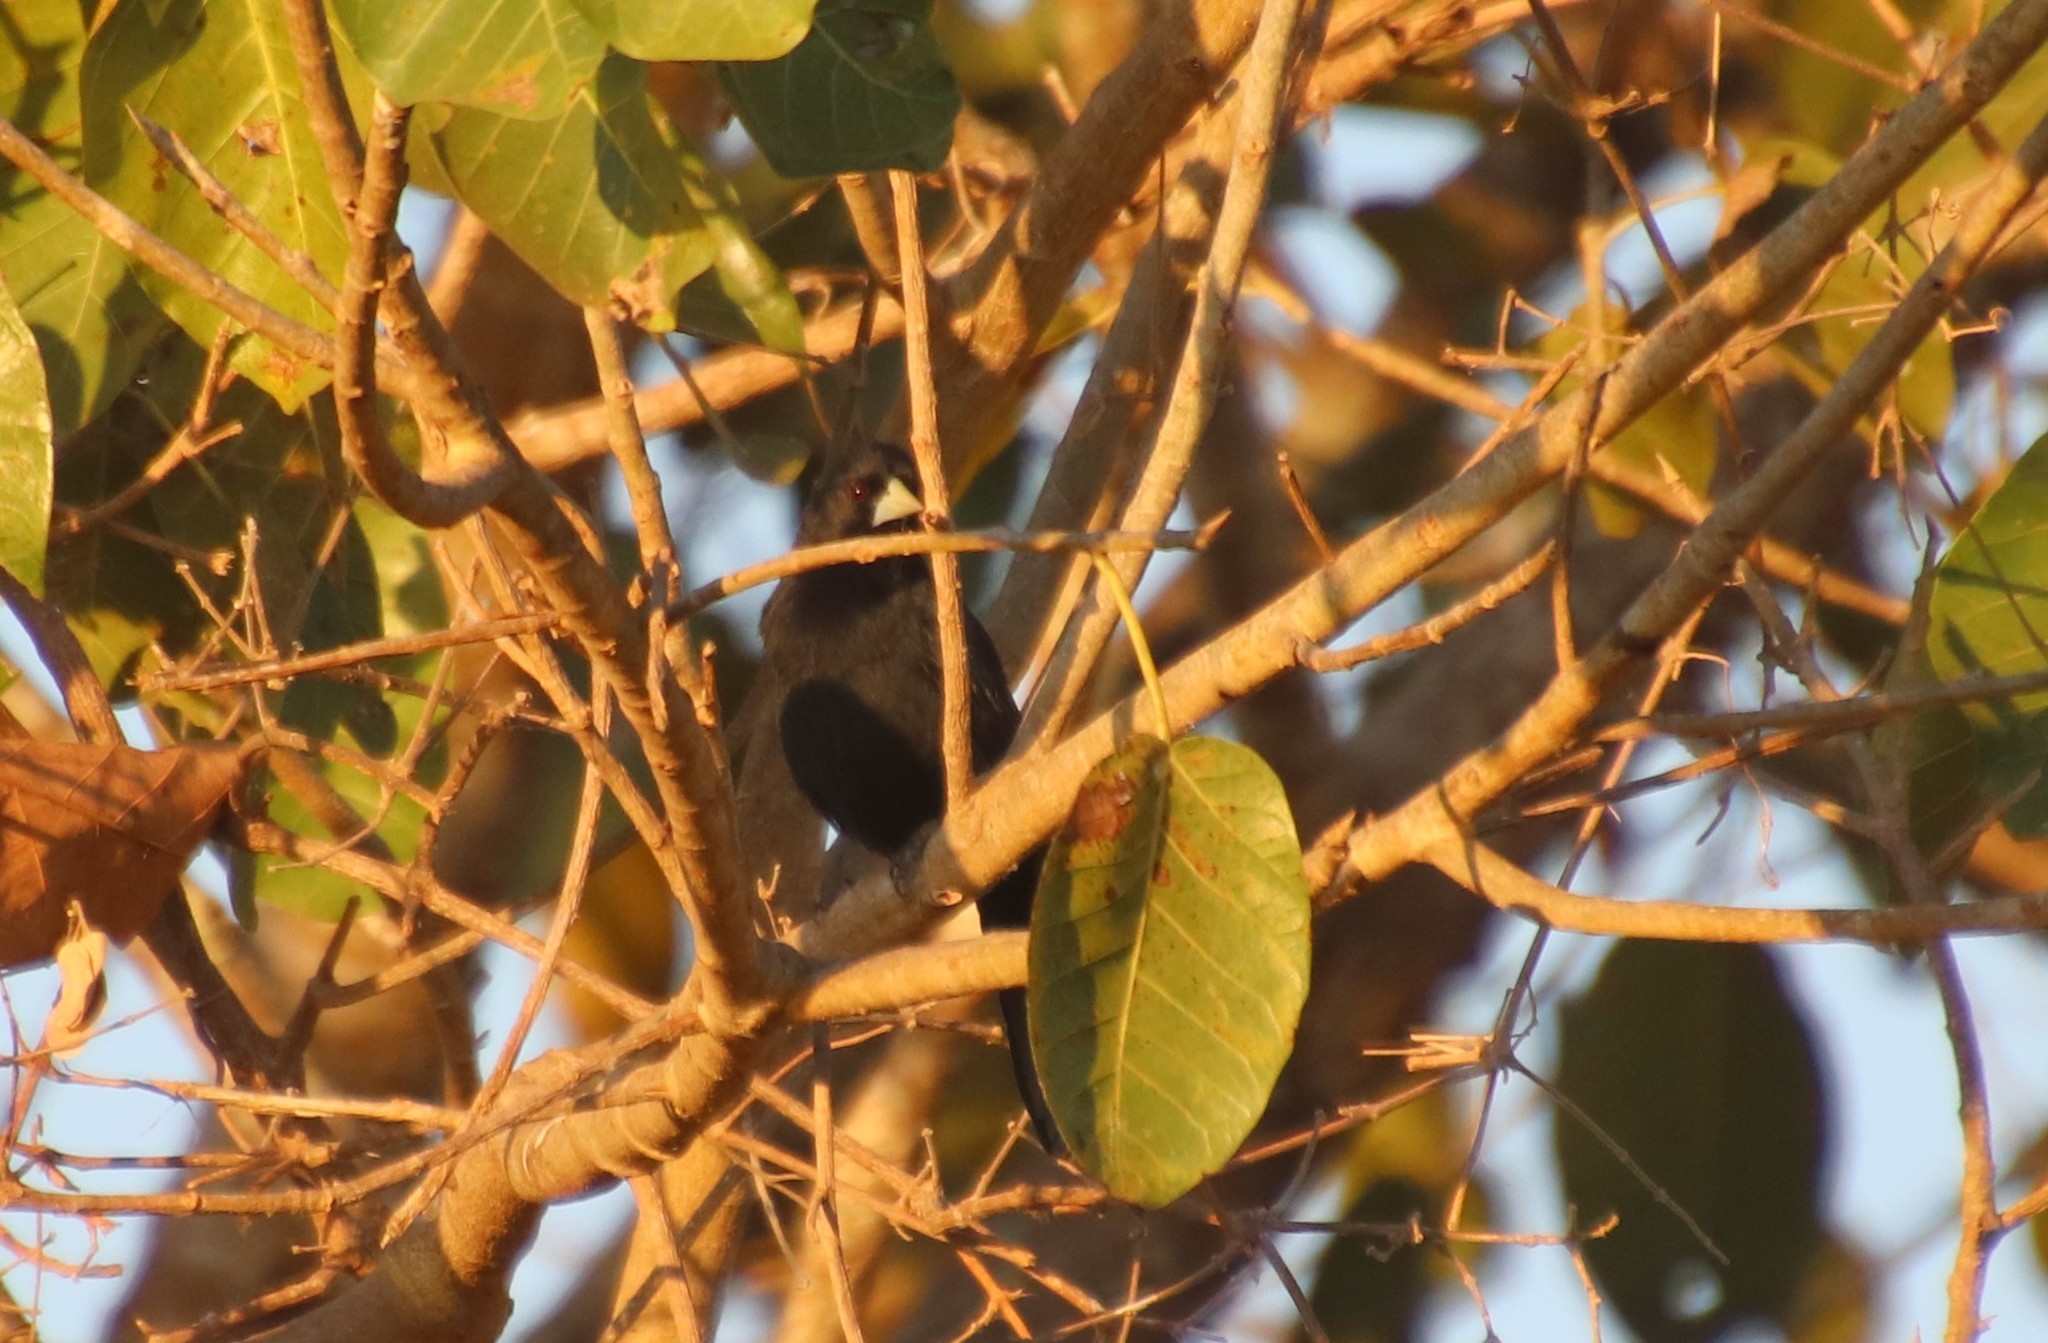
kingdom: Animalia
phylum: Chordata
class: Aves
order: Passeriformes
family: Icteridae
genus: Cacicus
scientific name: Cacicus solitarius
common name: Solitary cacique
